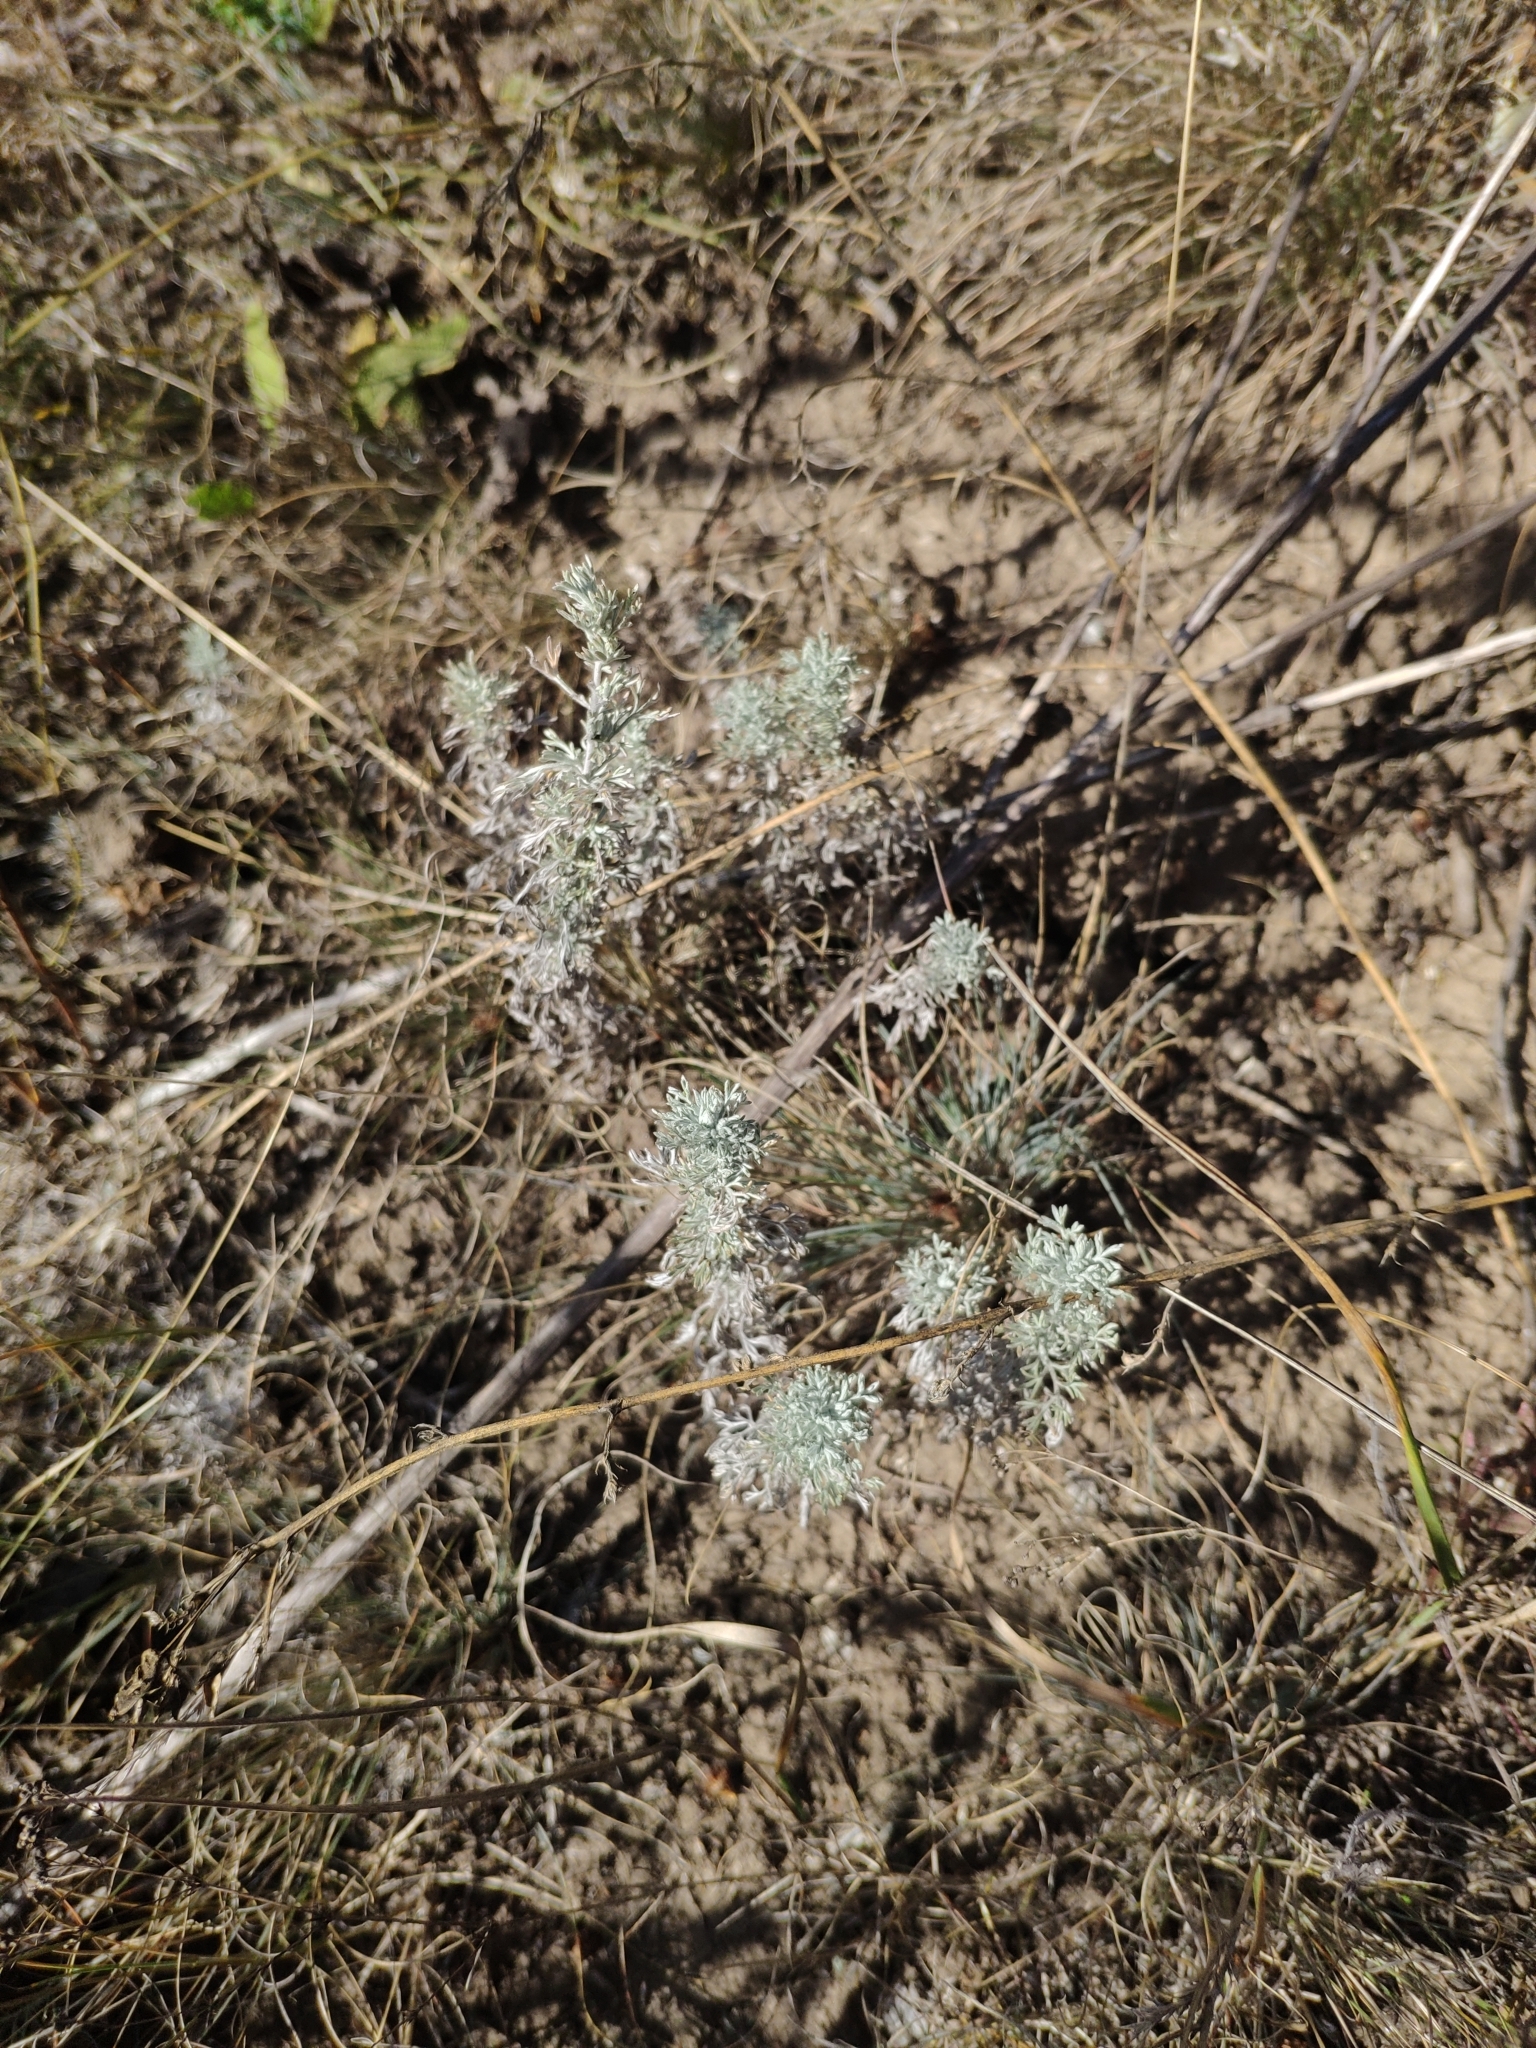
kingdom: Plantae
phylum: Tracheophyta
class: Magnoliopsida
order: Asterales
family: Asteraceae
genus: Artemisia
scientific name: Artemisia austriaca
